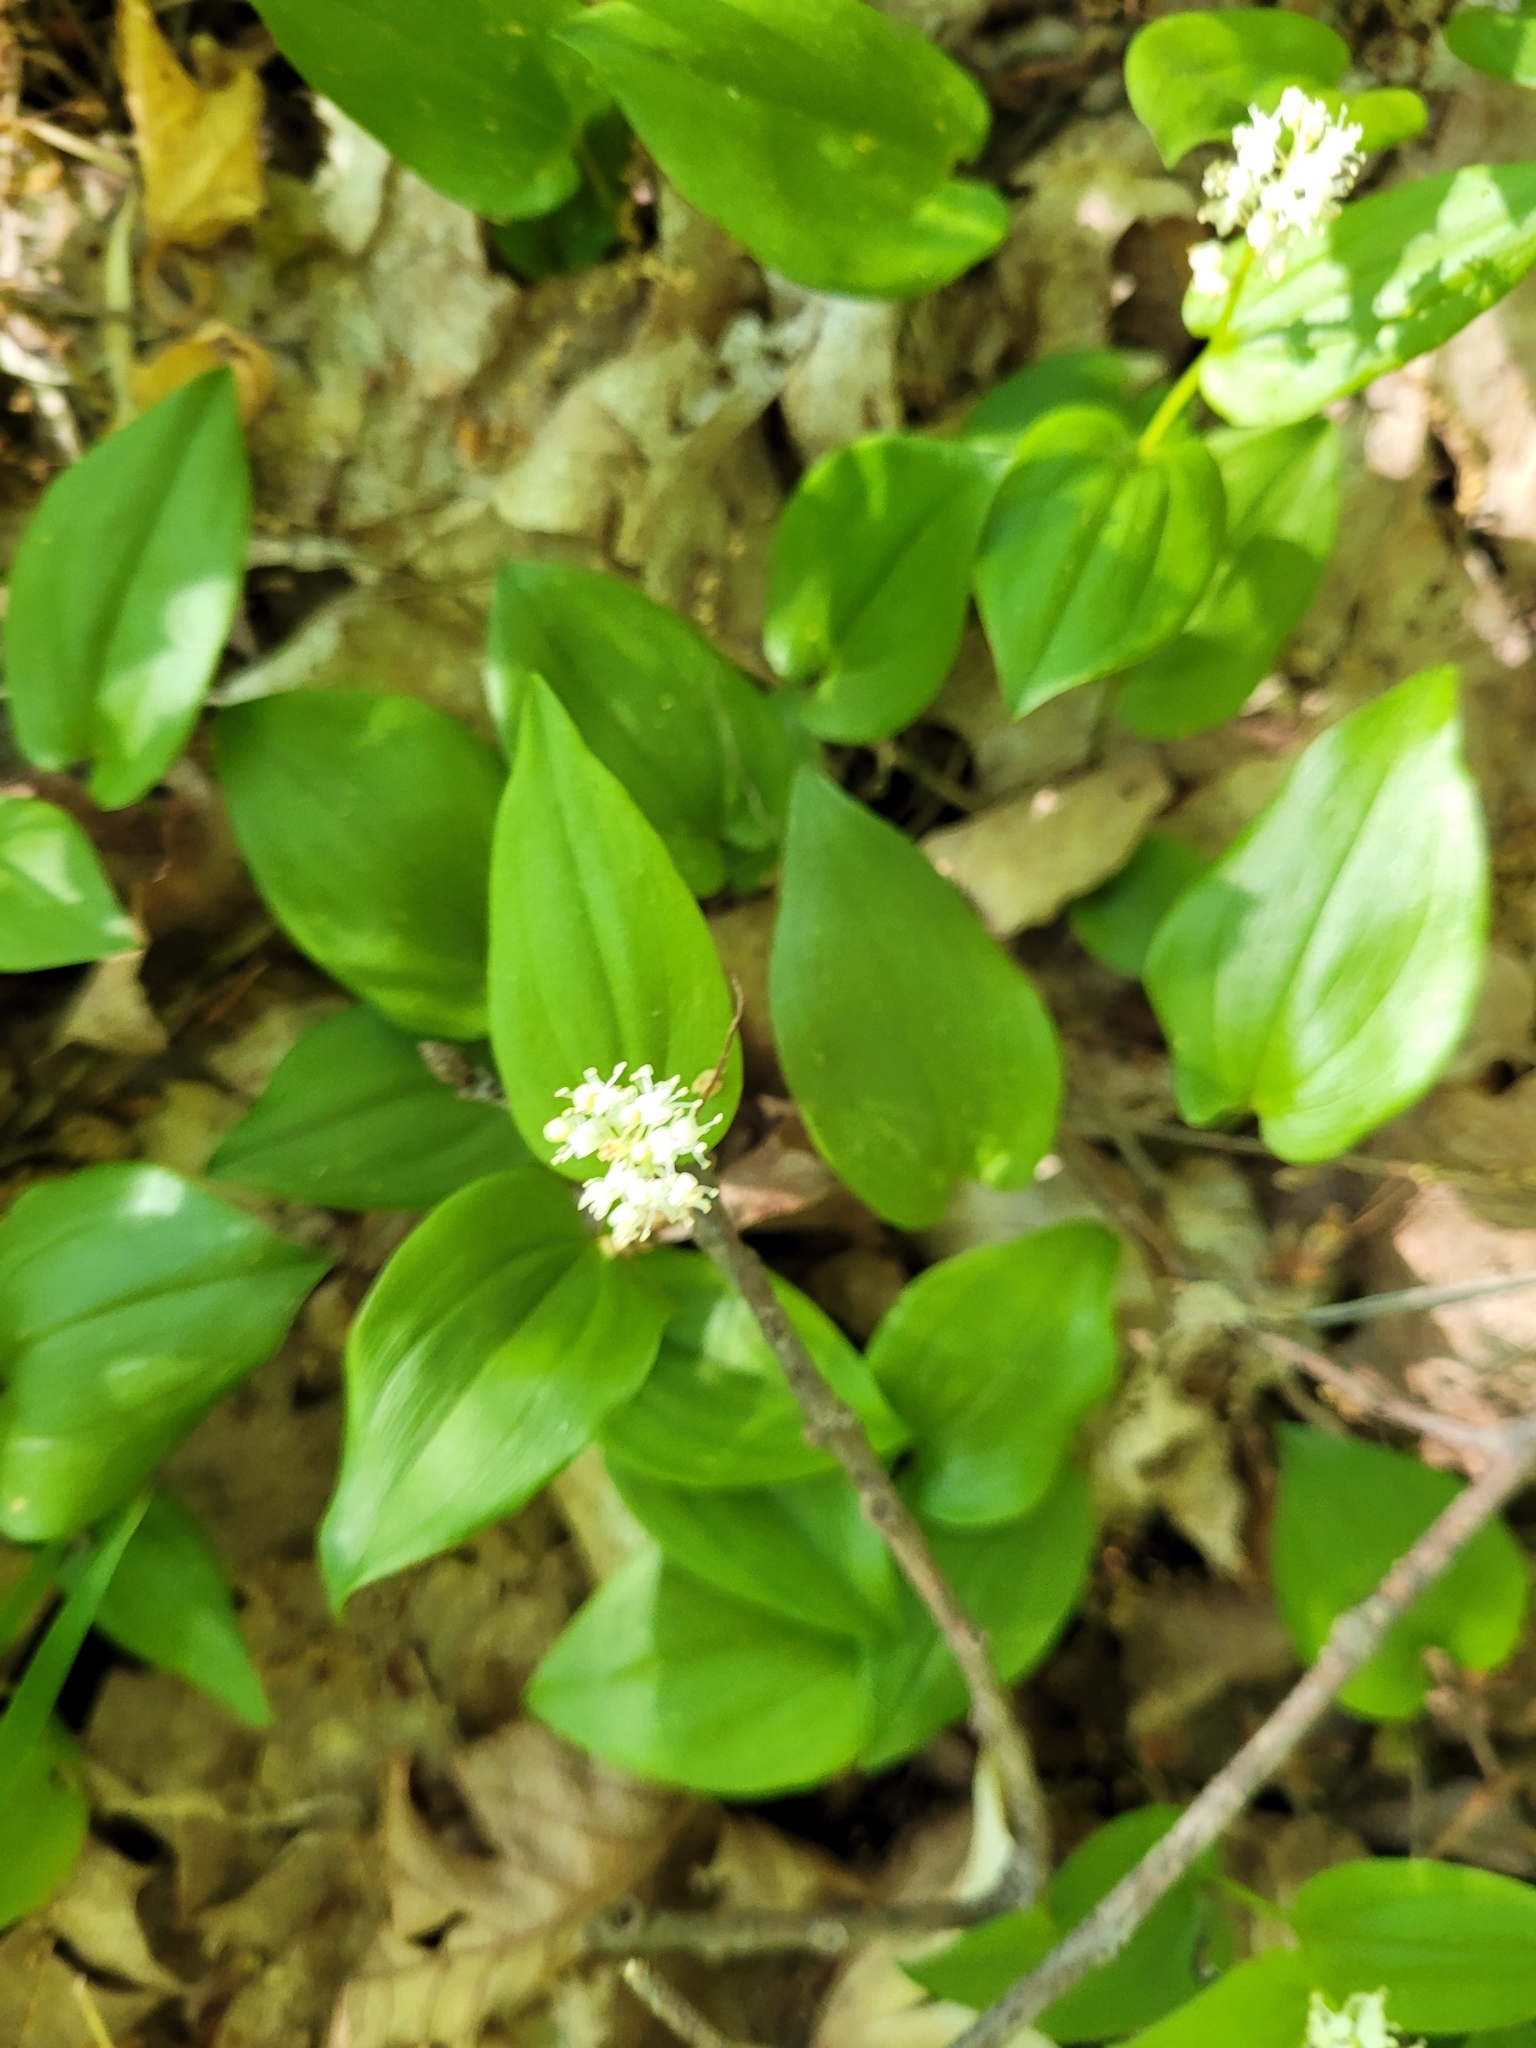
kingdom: Plantae
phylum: Tracheophyta
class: Liliopsida
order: Asparagales
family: Asparagaceae
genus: Maianthemum
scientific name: Maianthemum canadense
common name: False lily-of-the-valley
